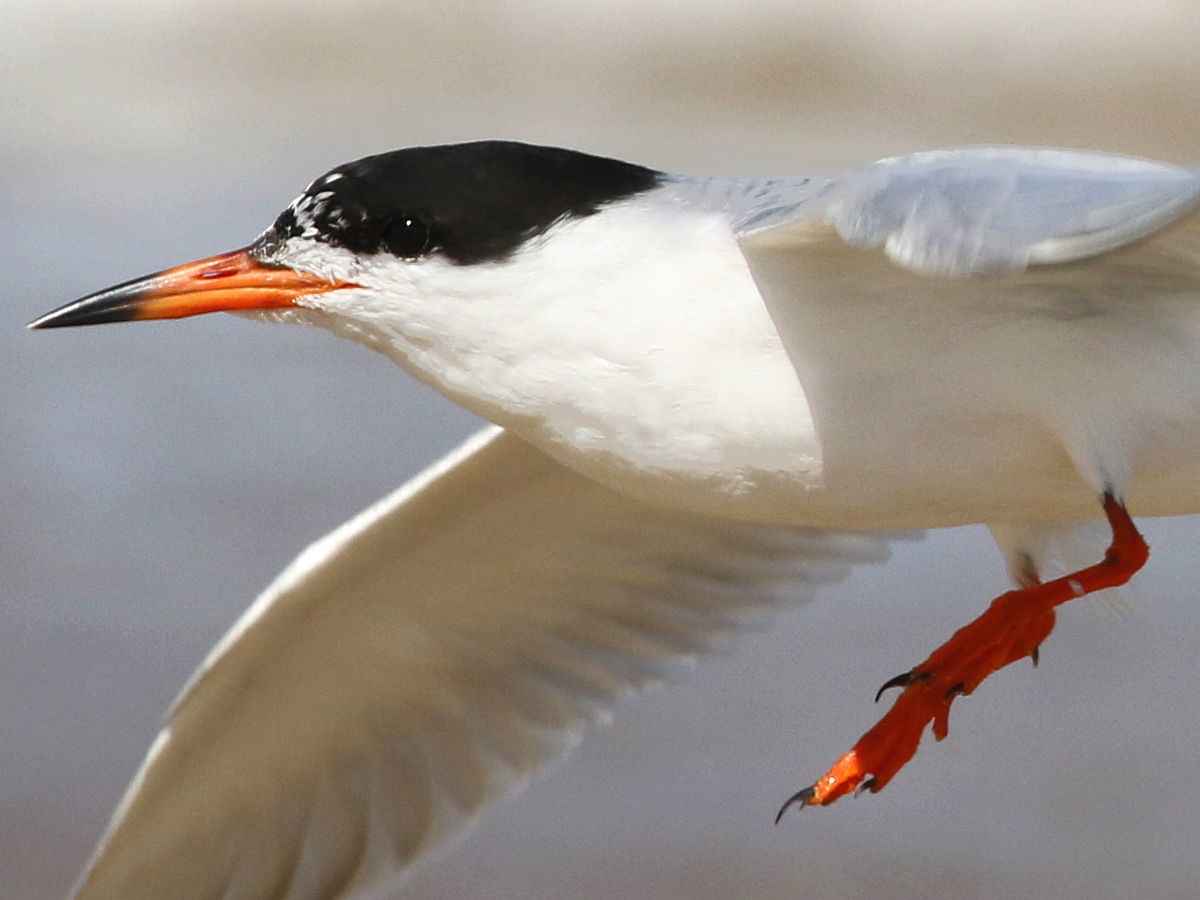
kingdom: Animalia
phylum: Chordata
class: Aves
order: Charadriiformes
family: Laridae
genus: Sterna
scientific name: Sterna forsteri
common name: Forster's tern
